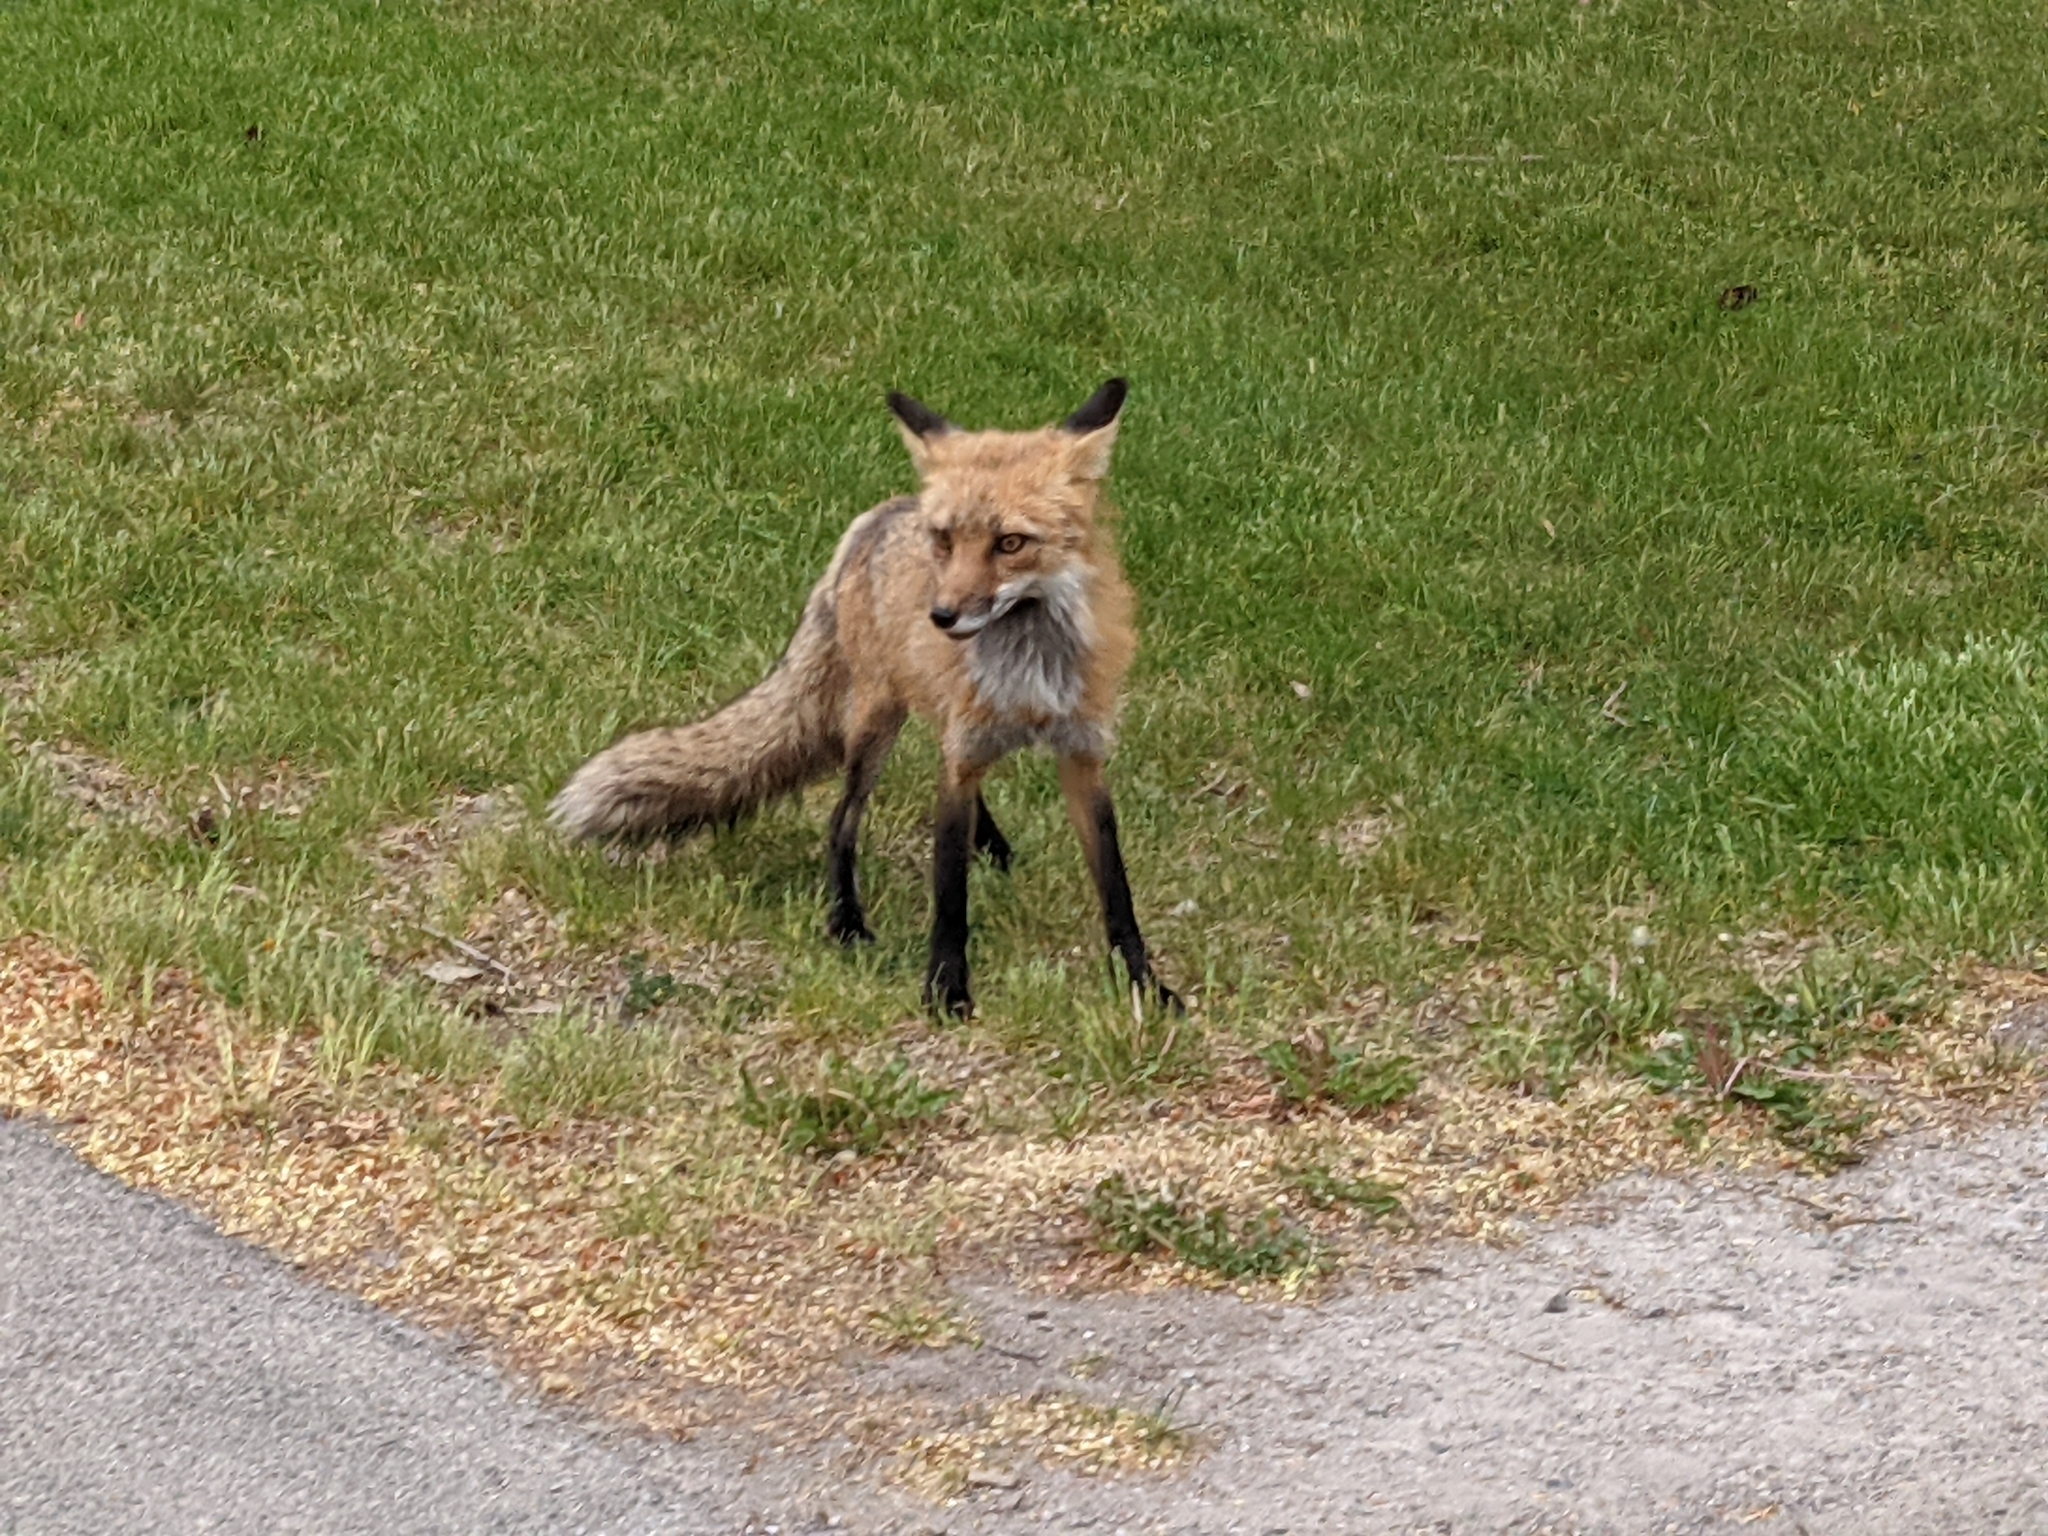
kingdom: Animalia
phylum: Chordata
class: Mammalia
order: Carnivora
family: Canidae
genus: Vulpes
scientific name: Vulpes vulpes
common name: Red fox
